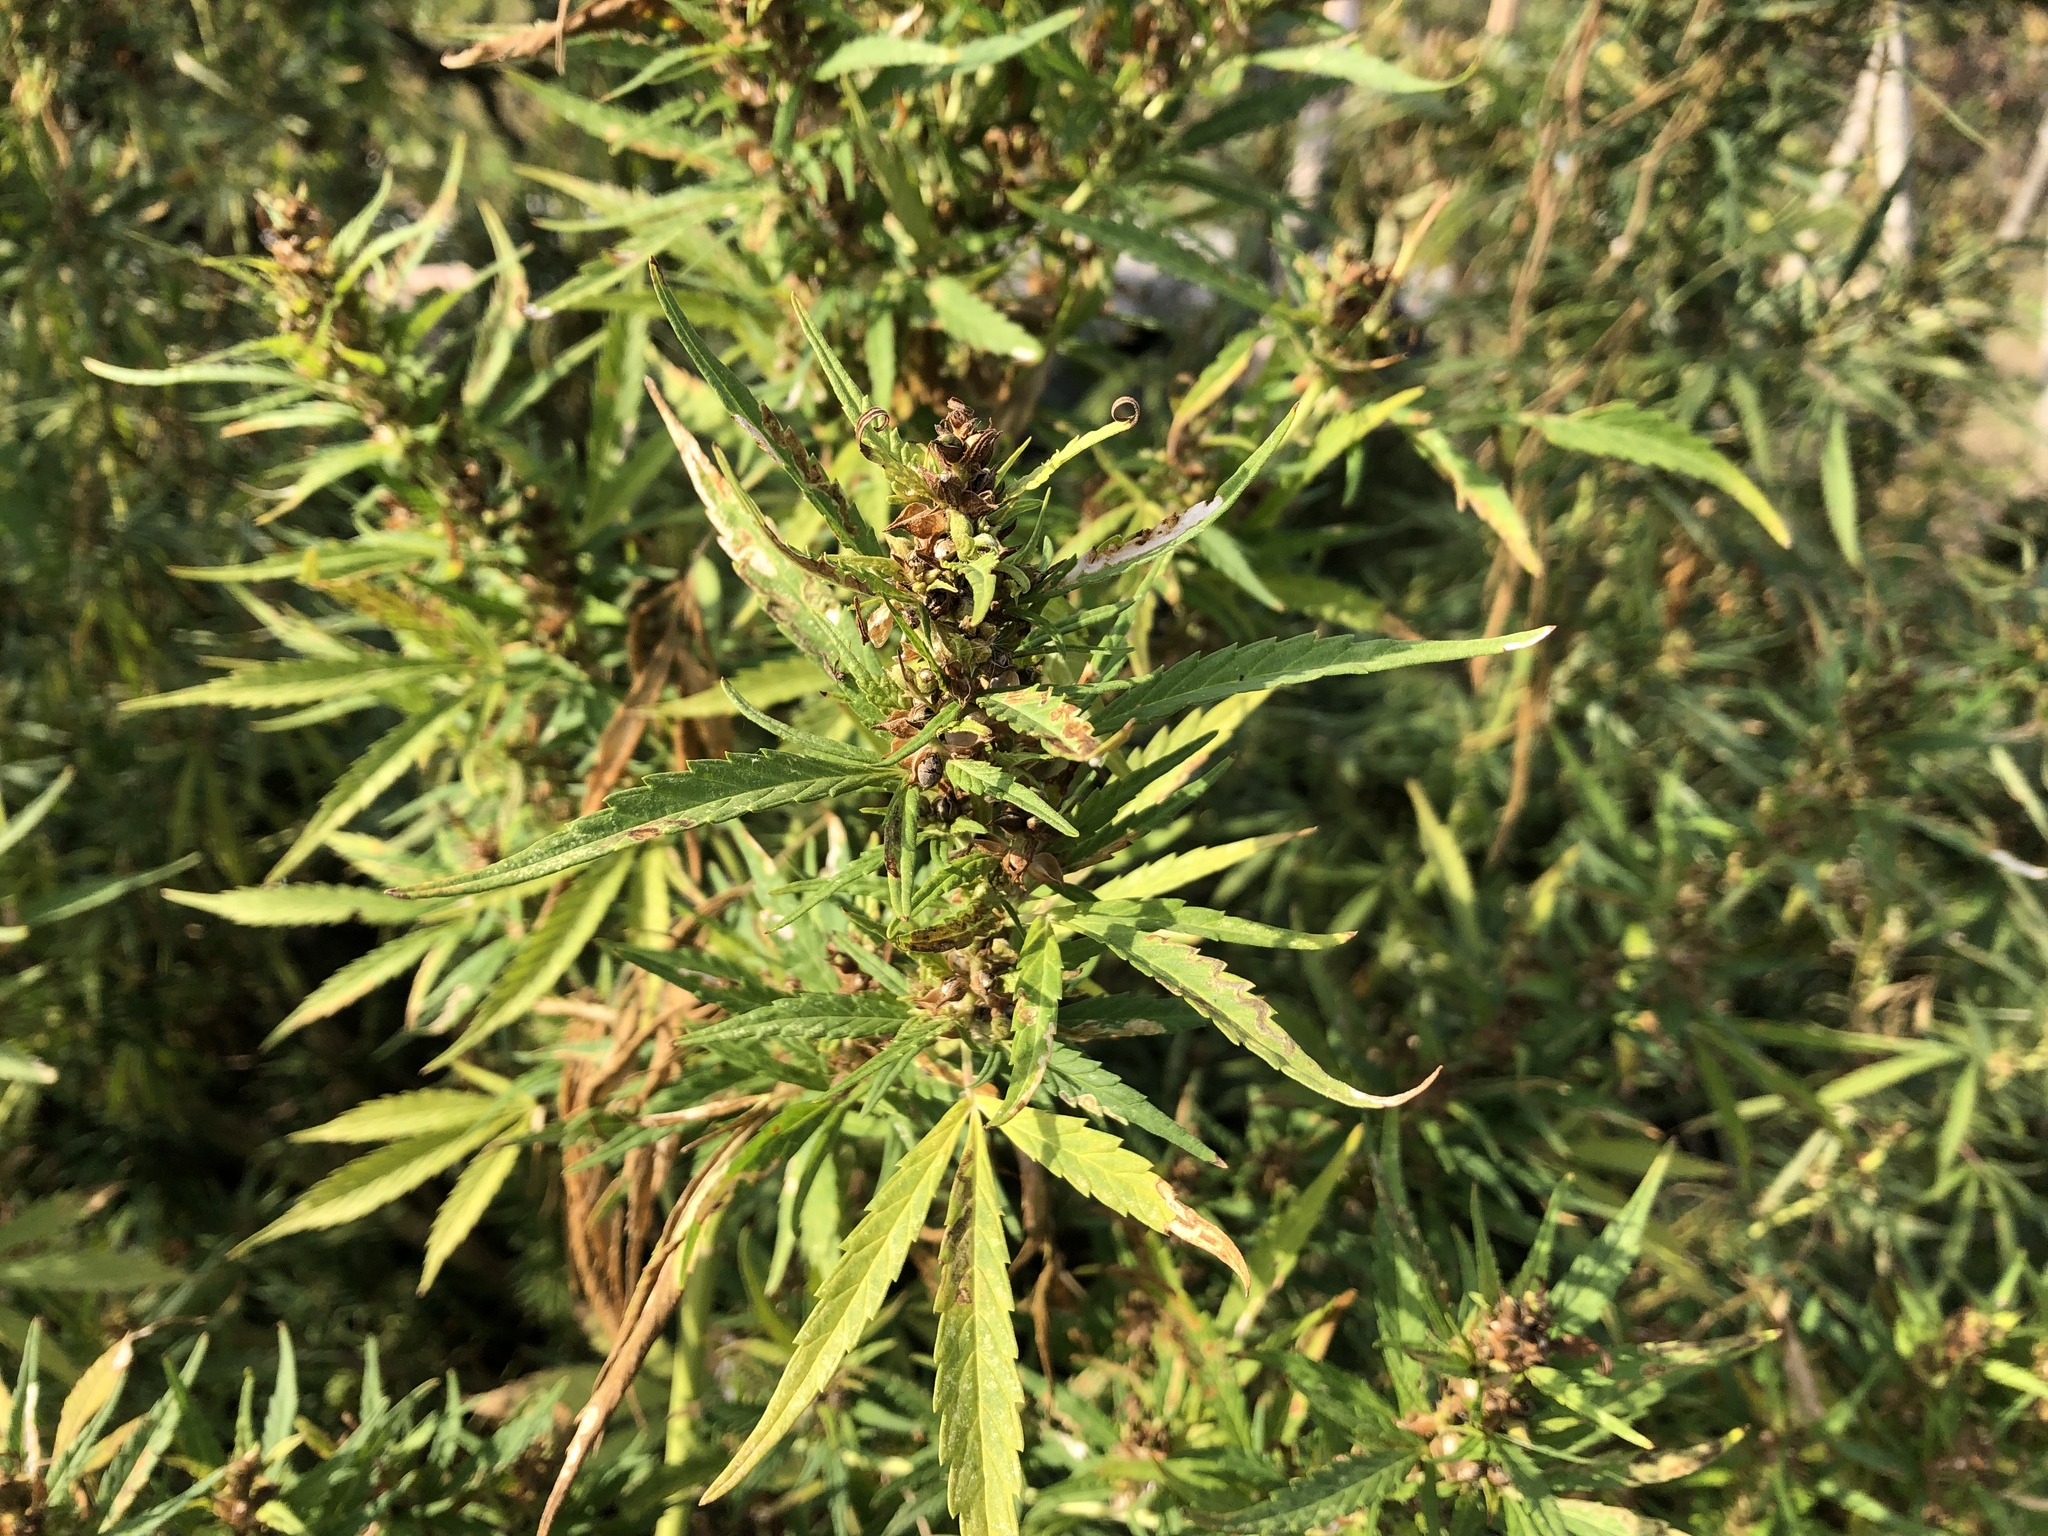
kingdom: Plantae
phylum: Tracheophyta
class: Magnoliopsida
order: Rosales
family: Cannabaceae
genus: Cannabis
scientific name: Cannabis sativa
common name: Hemp
